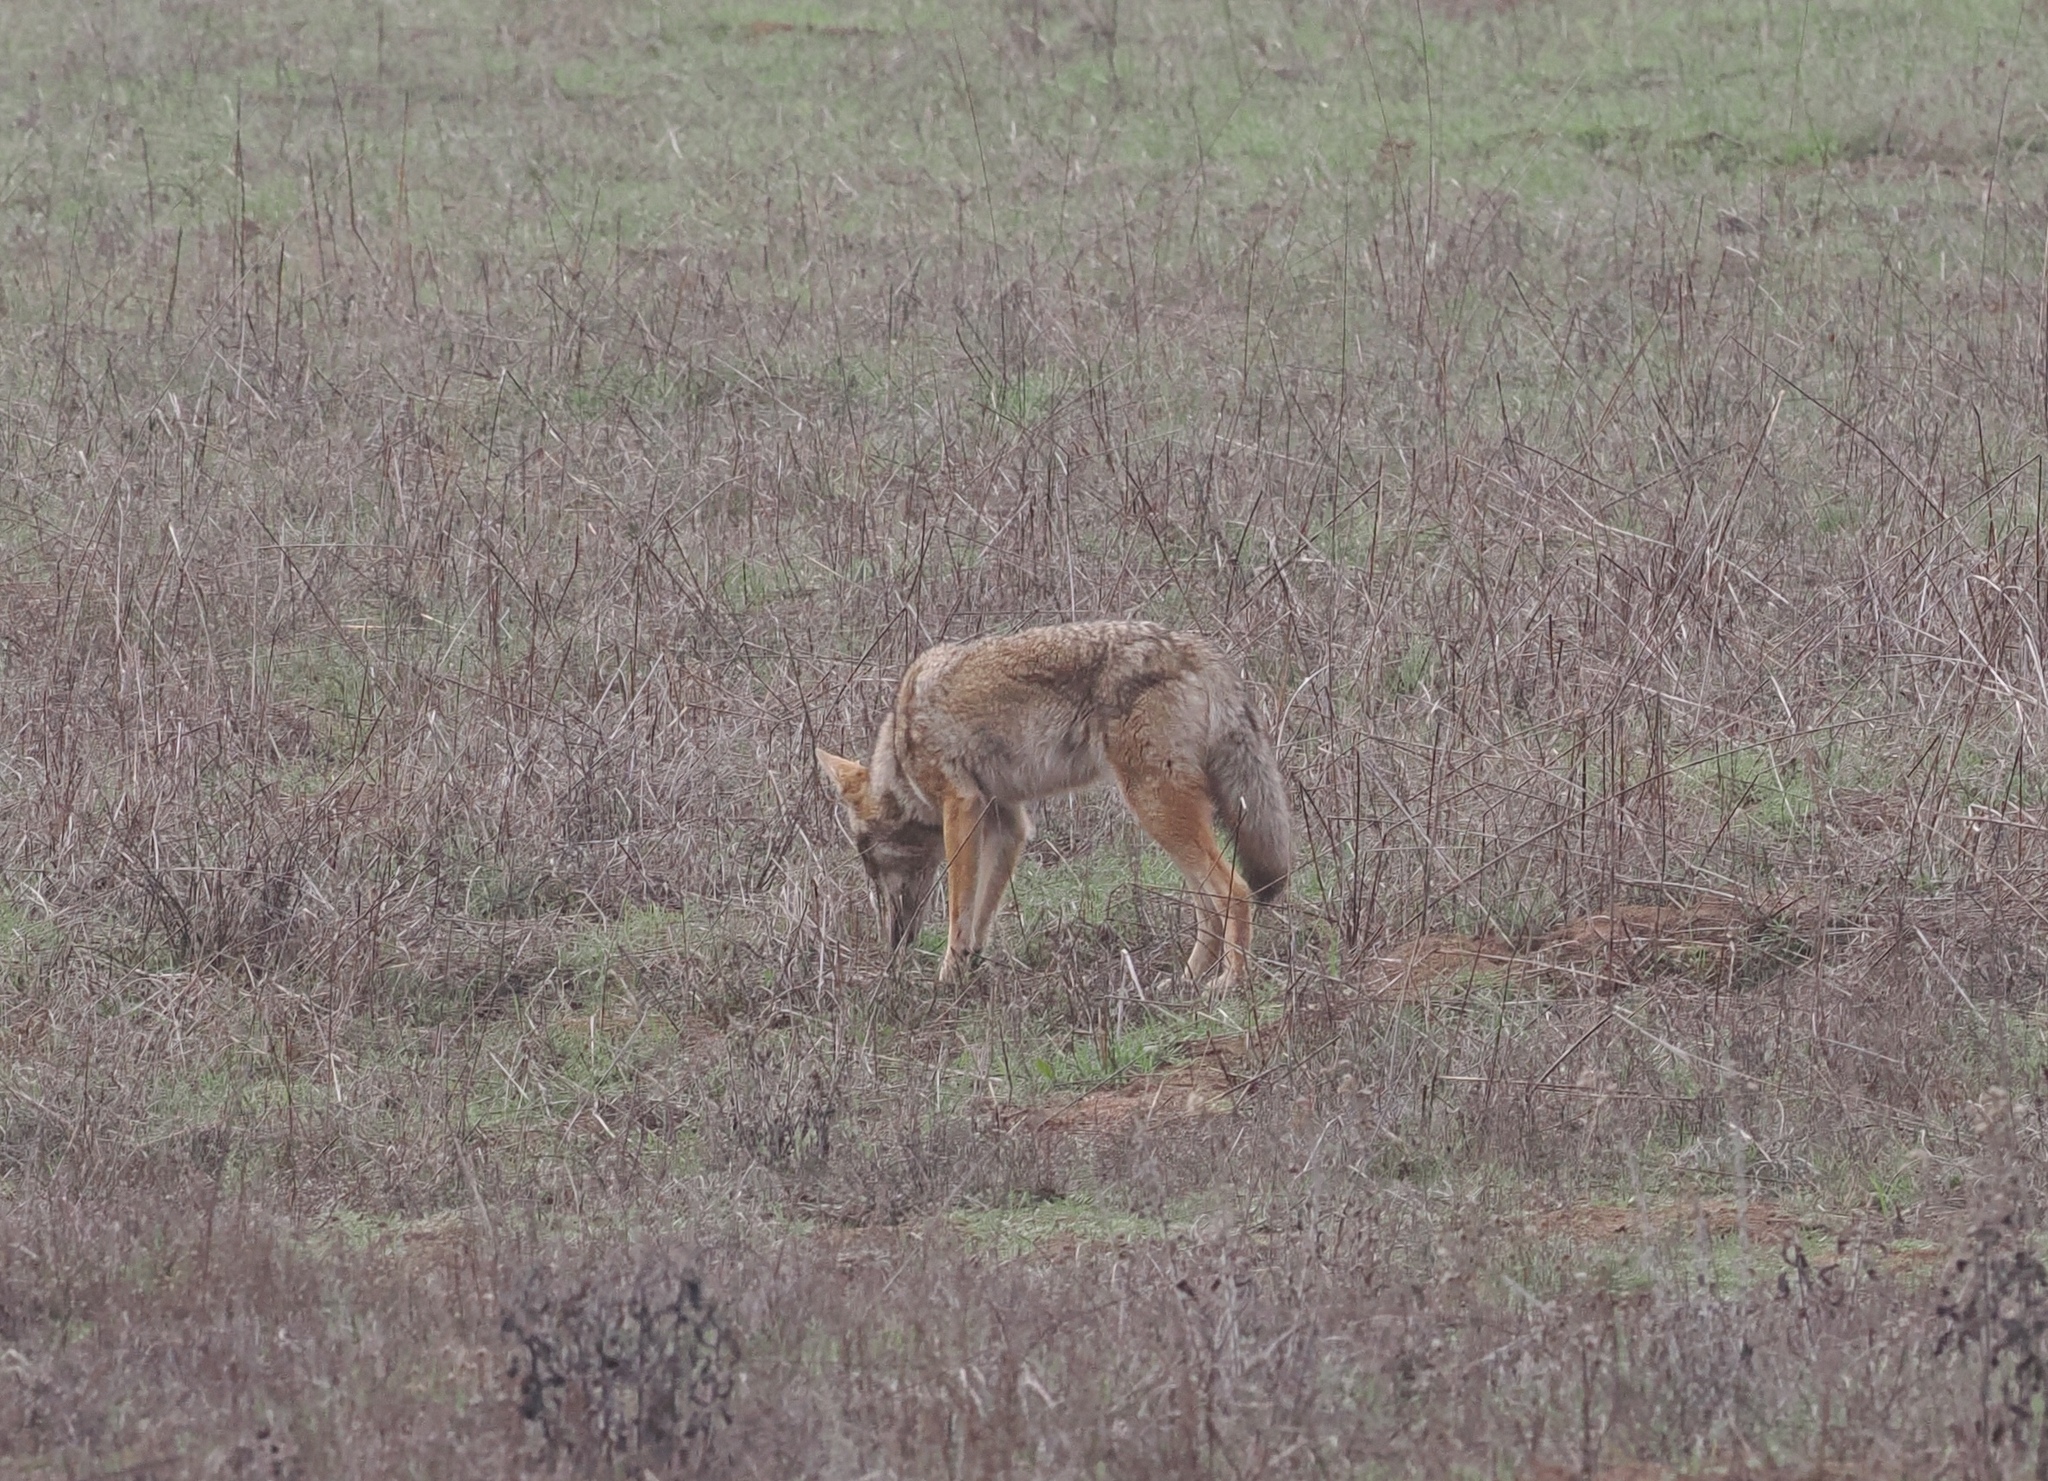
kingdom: Animalia
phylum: Chordata
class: Mammalia
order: Carnivora
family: Canidae
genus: Canis
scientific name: Canis latrans
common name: Coyote
